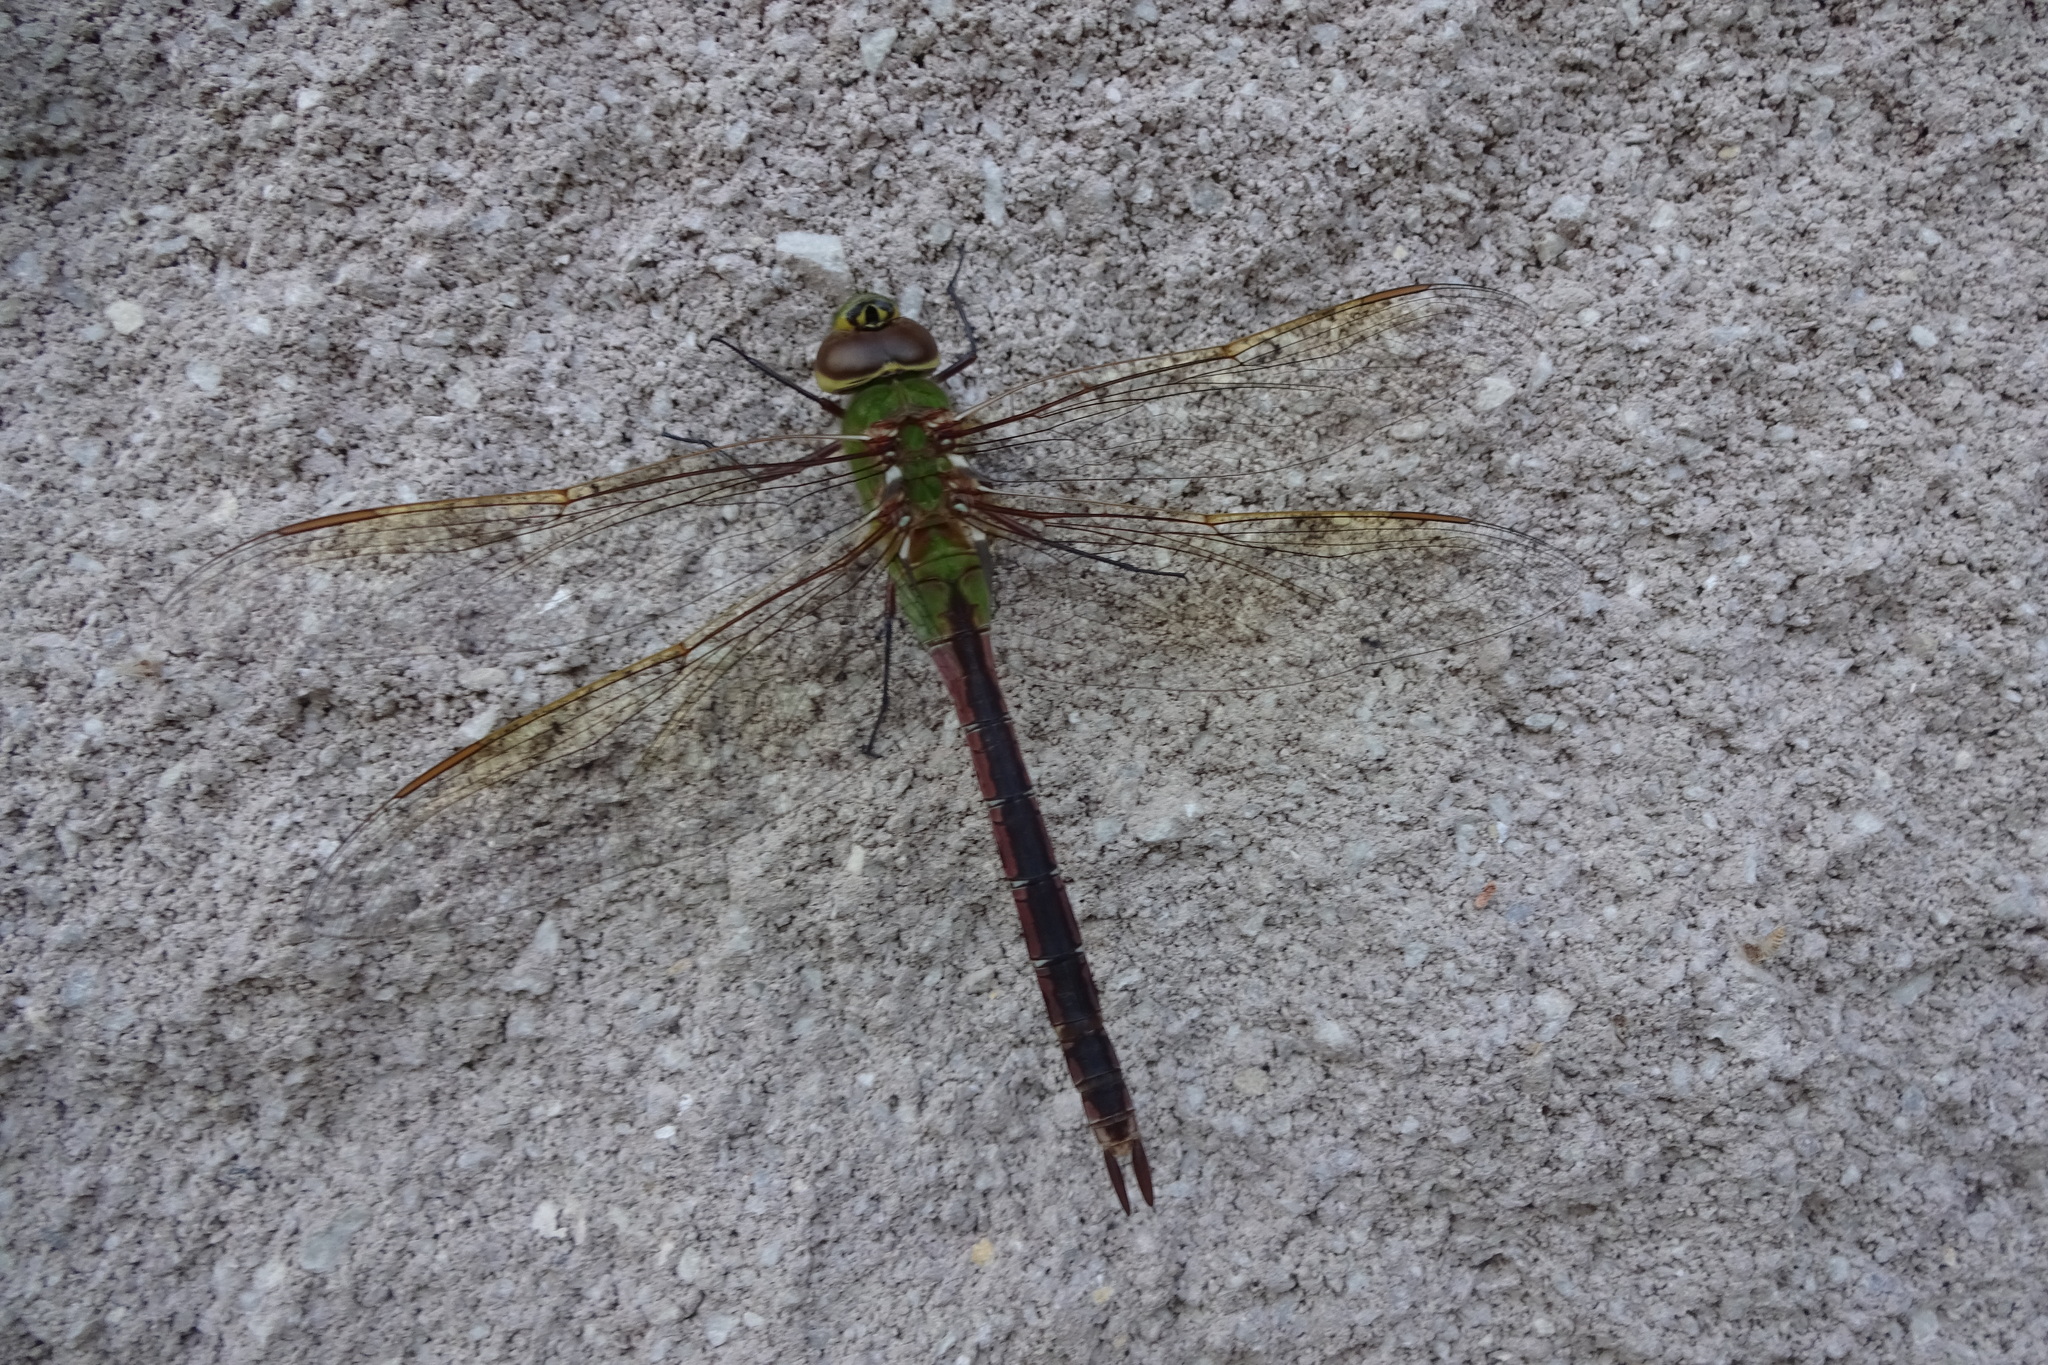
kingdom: Animalia
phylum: Arthropoda
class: Insecta
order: Odonata
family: Aeshnidae
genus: Anax
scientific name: Anax junius
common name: Common green darner
